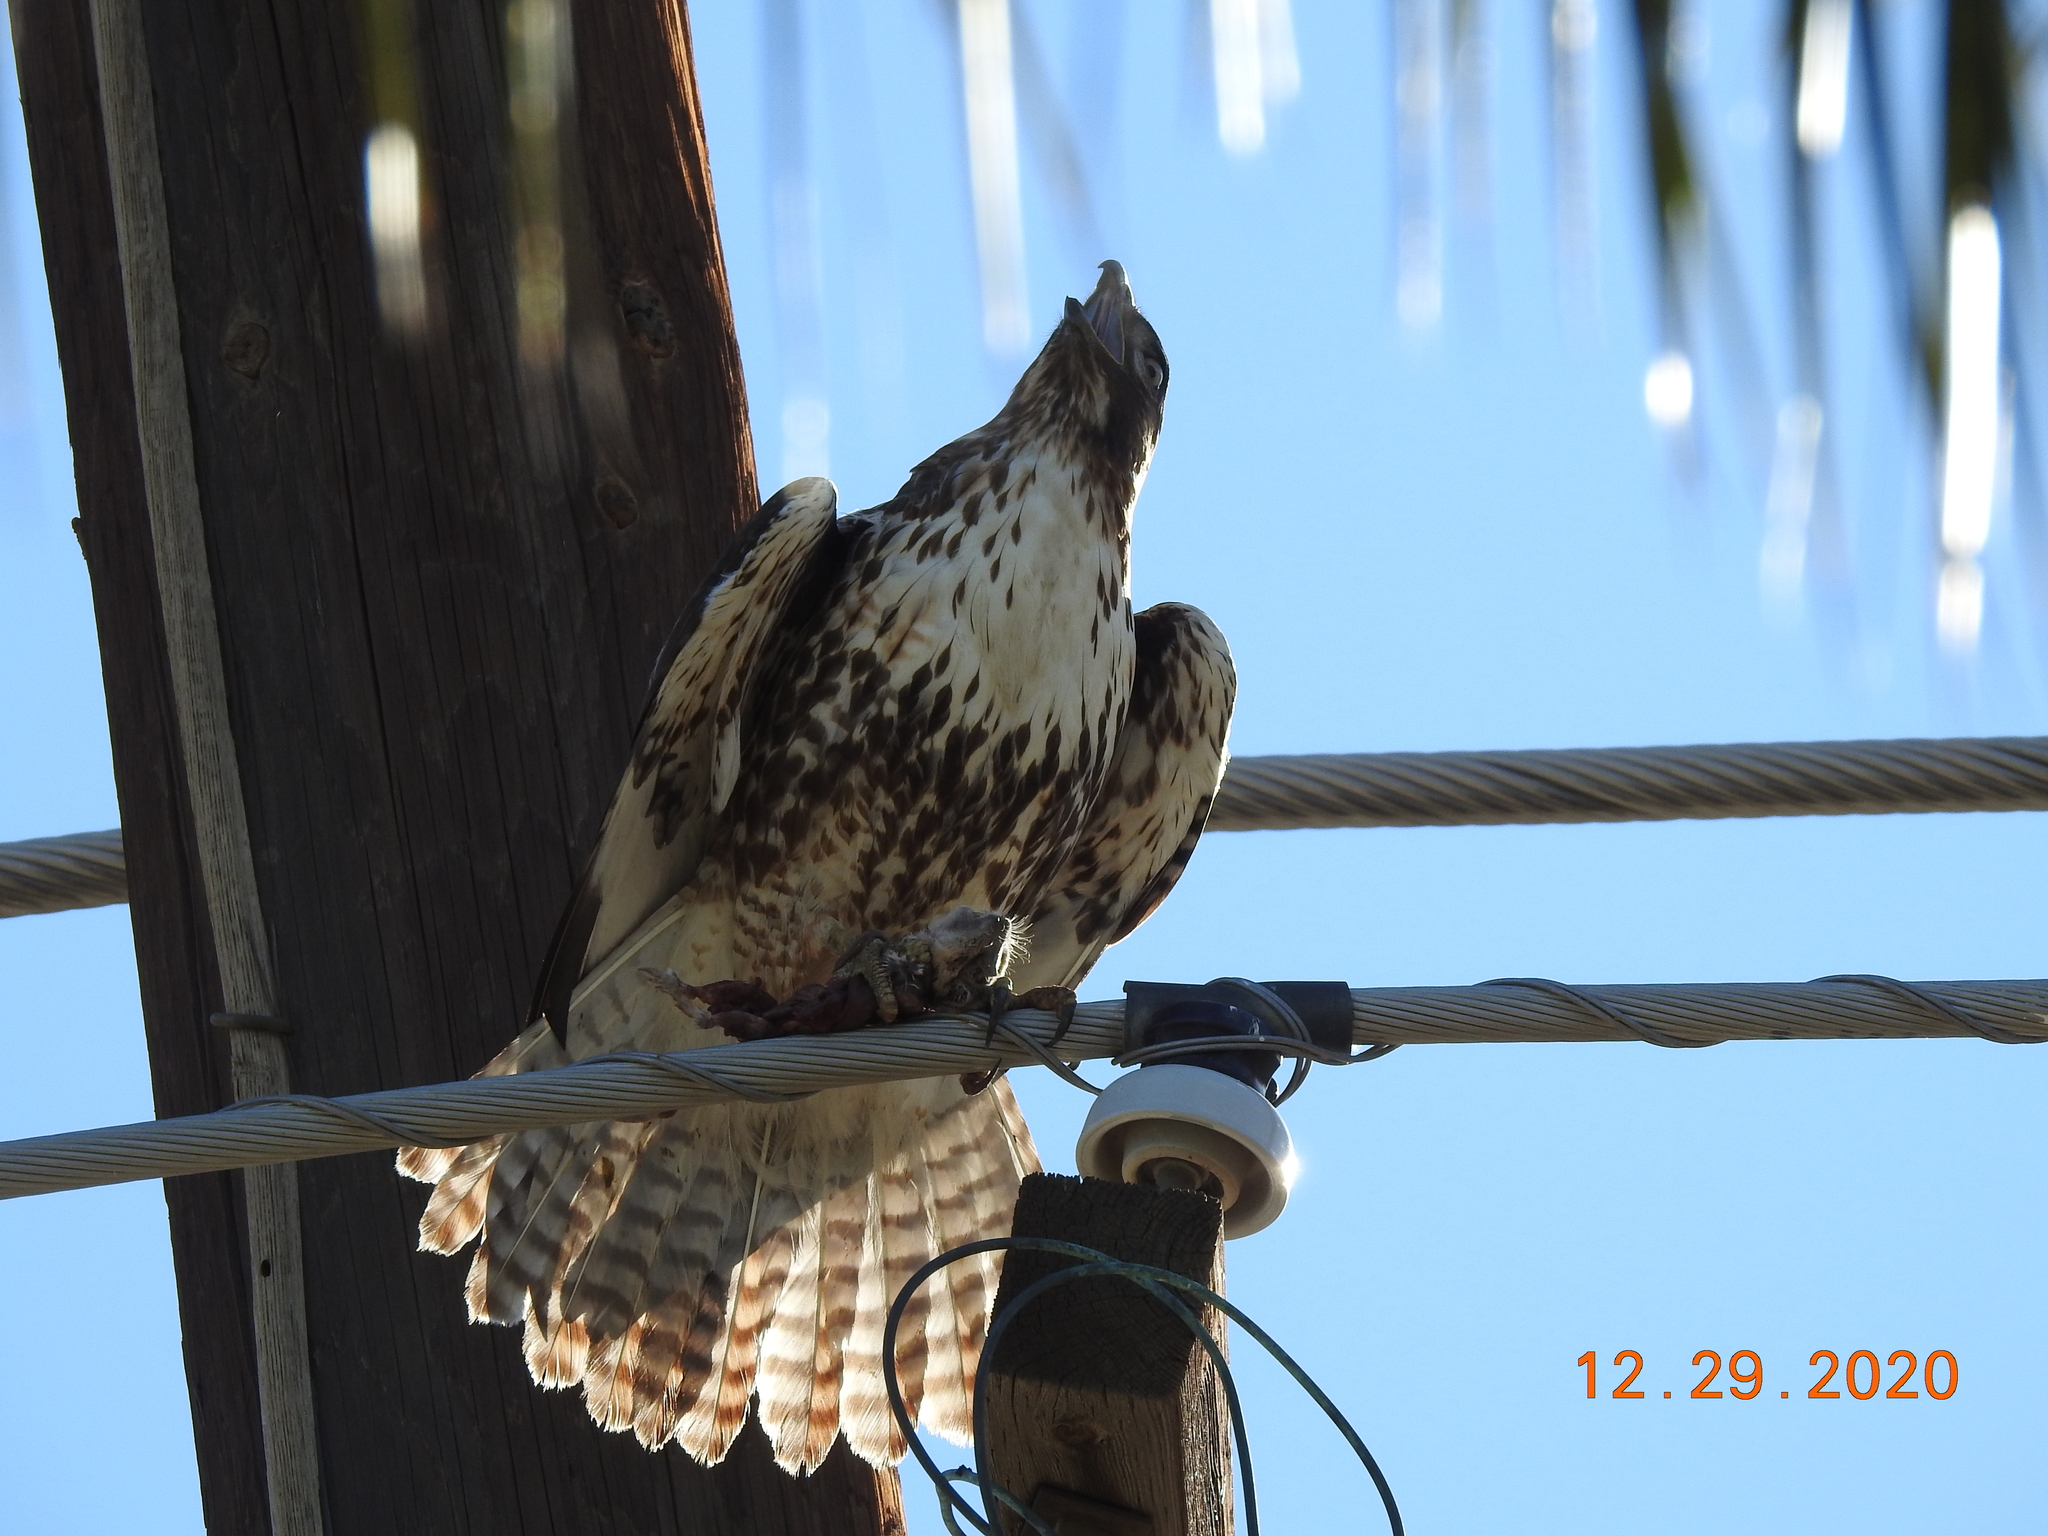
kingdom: Animalia
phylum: Chordata
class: Aves
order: Accipitriformes
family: Accipitridae
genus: Buteo
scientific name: Buteo jamaicensis
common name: Red-tailed hawk
